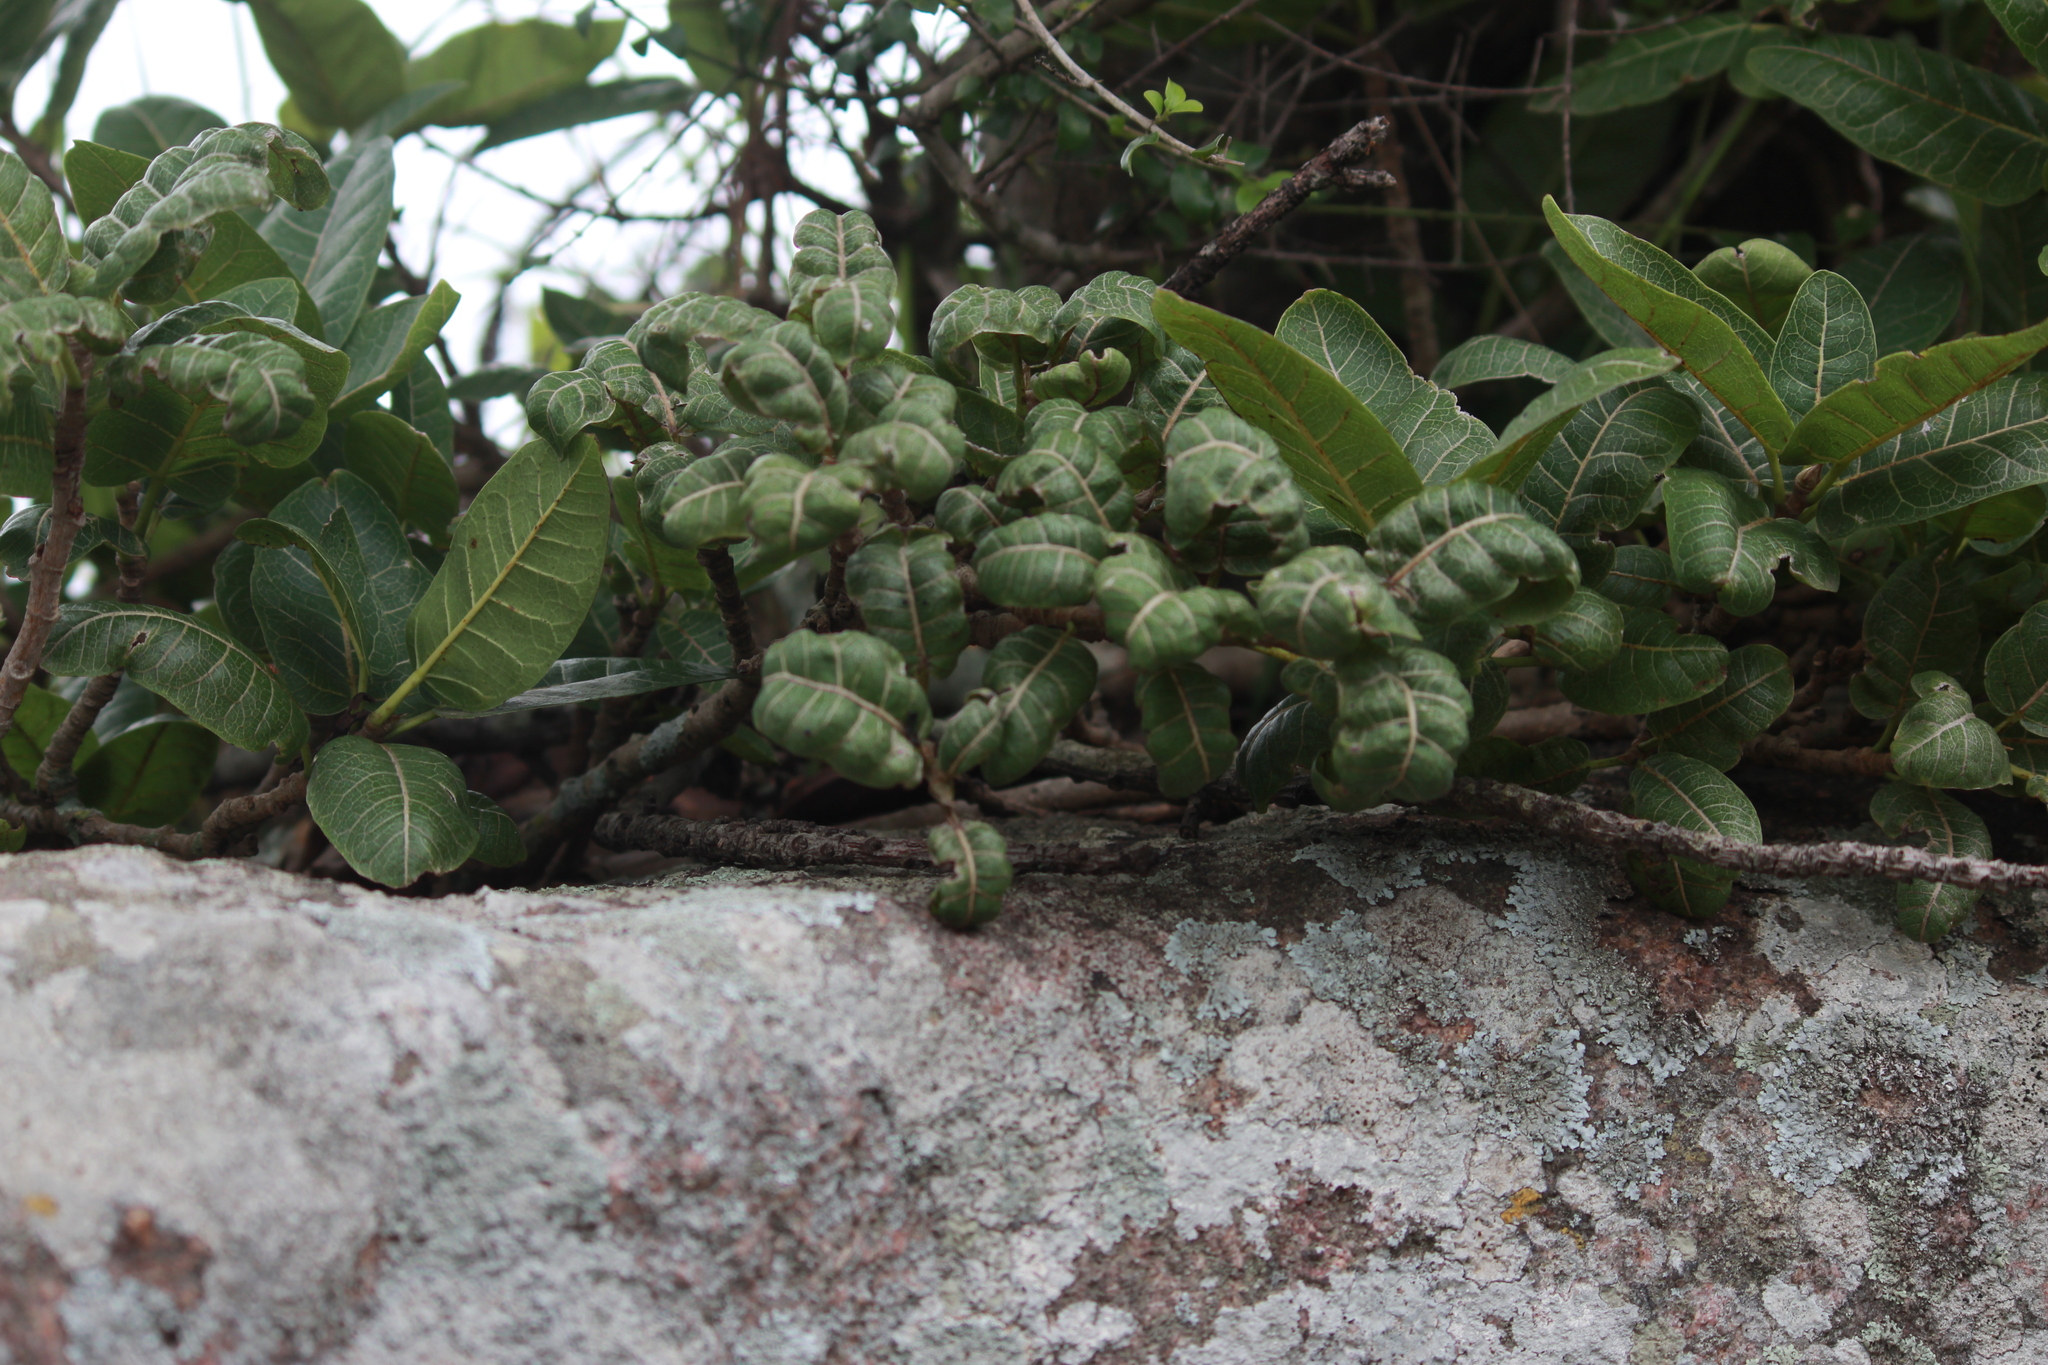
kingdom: Plantae
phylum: Tracheophyta
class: Magnoliopsida
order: Rosales
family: Moraceae
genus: Ficus
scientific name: Ficus ingens
